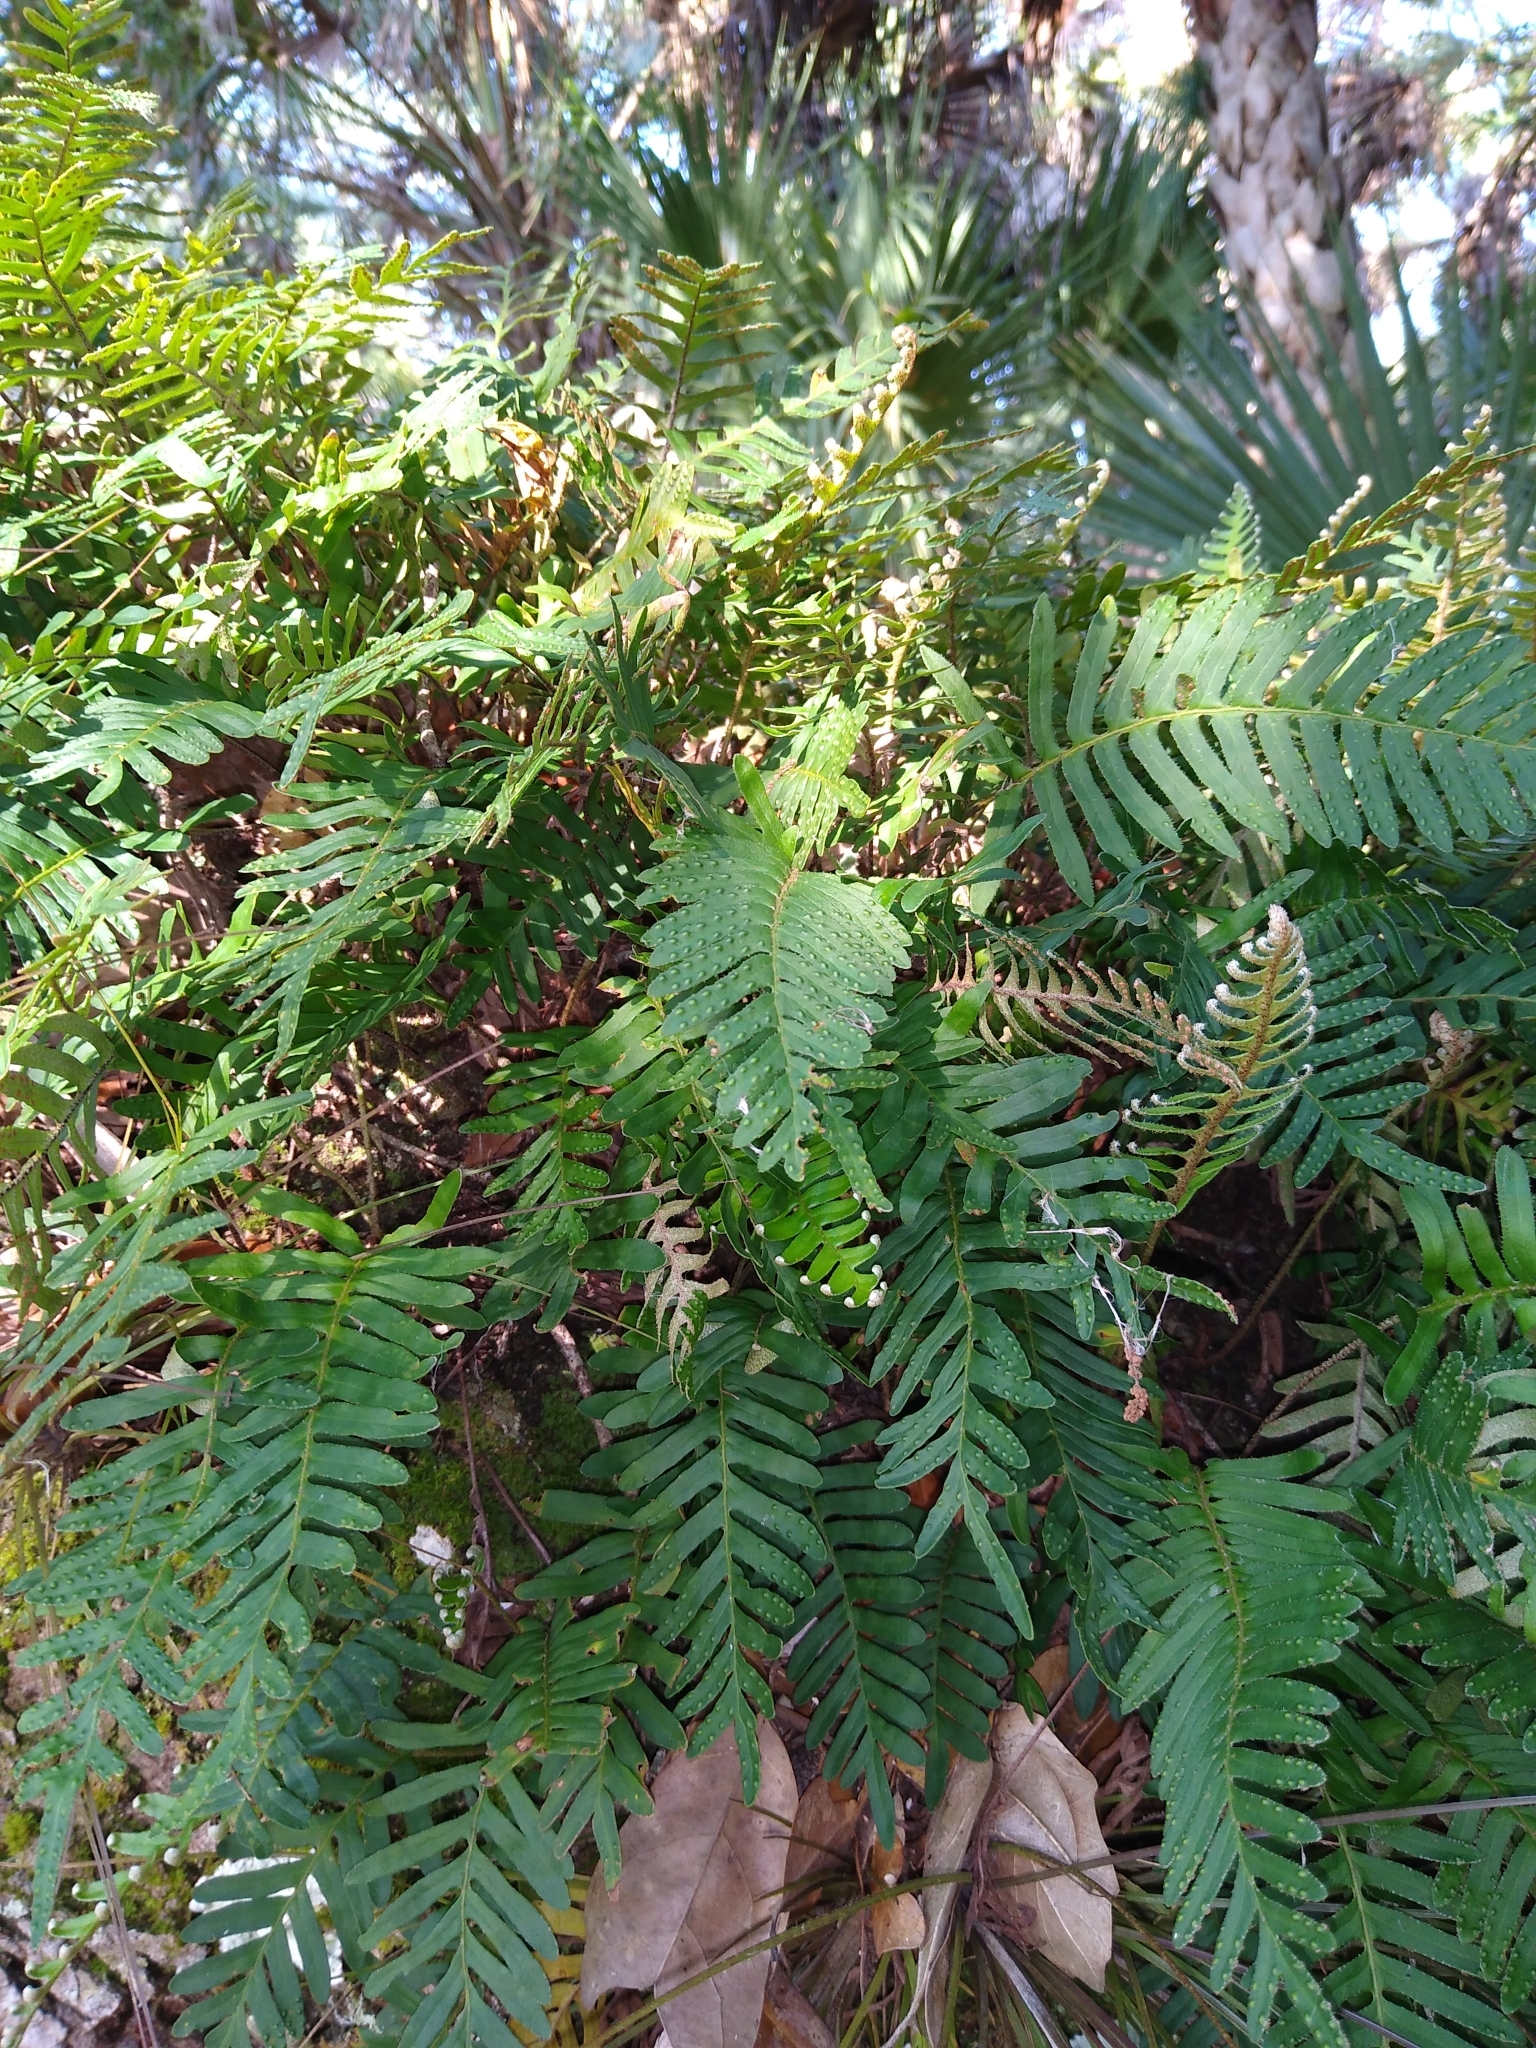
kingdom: Plantae
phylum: Tracheophyta
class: Polypodiopsida
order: Polypodiales
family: Polypodiaceae
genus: Pleopeltis
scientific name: Pleopeltis michauxiana
